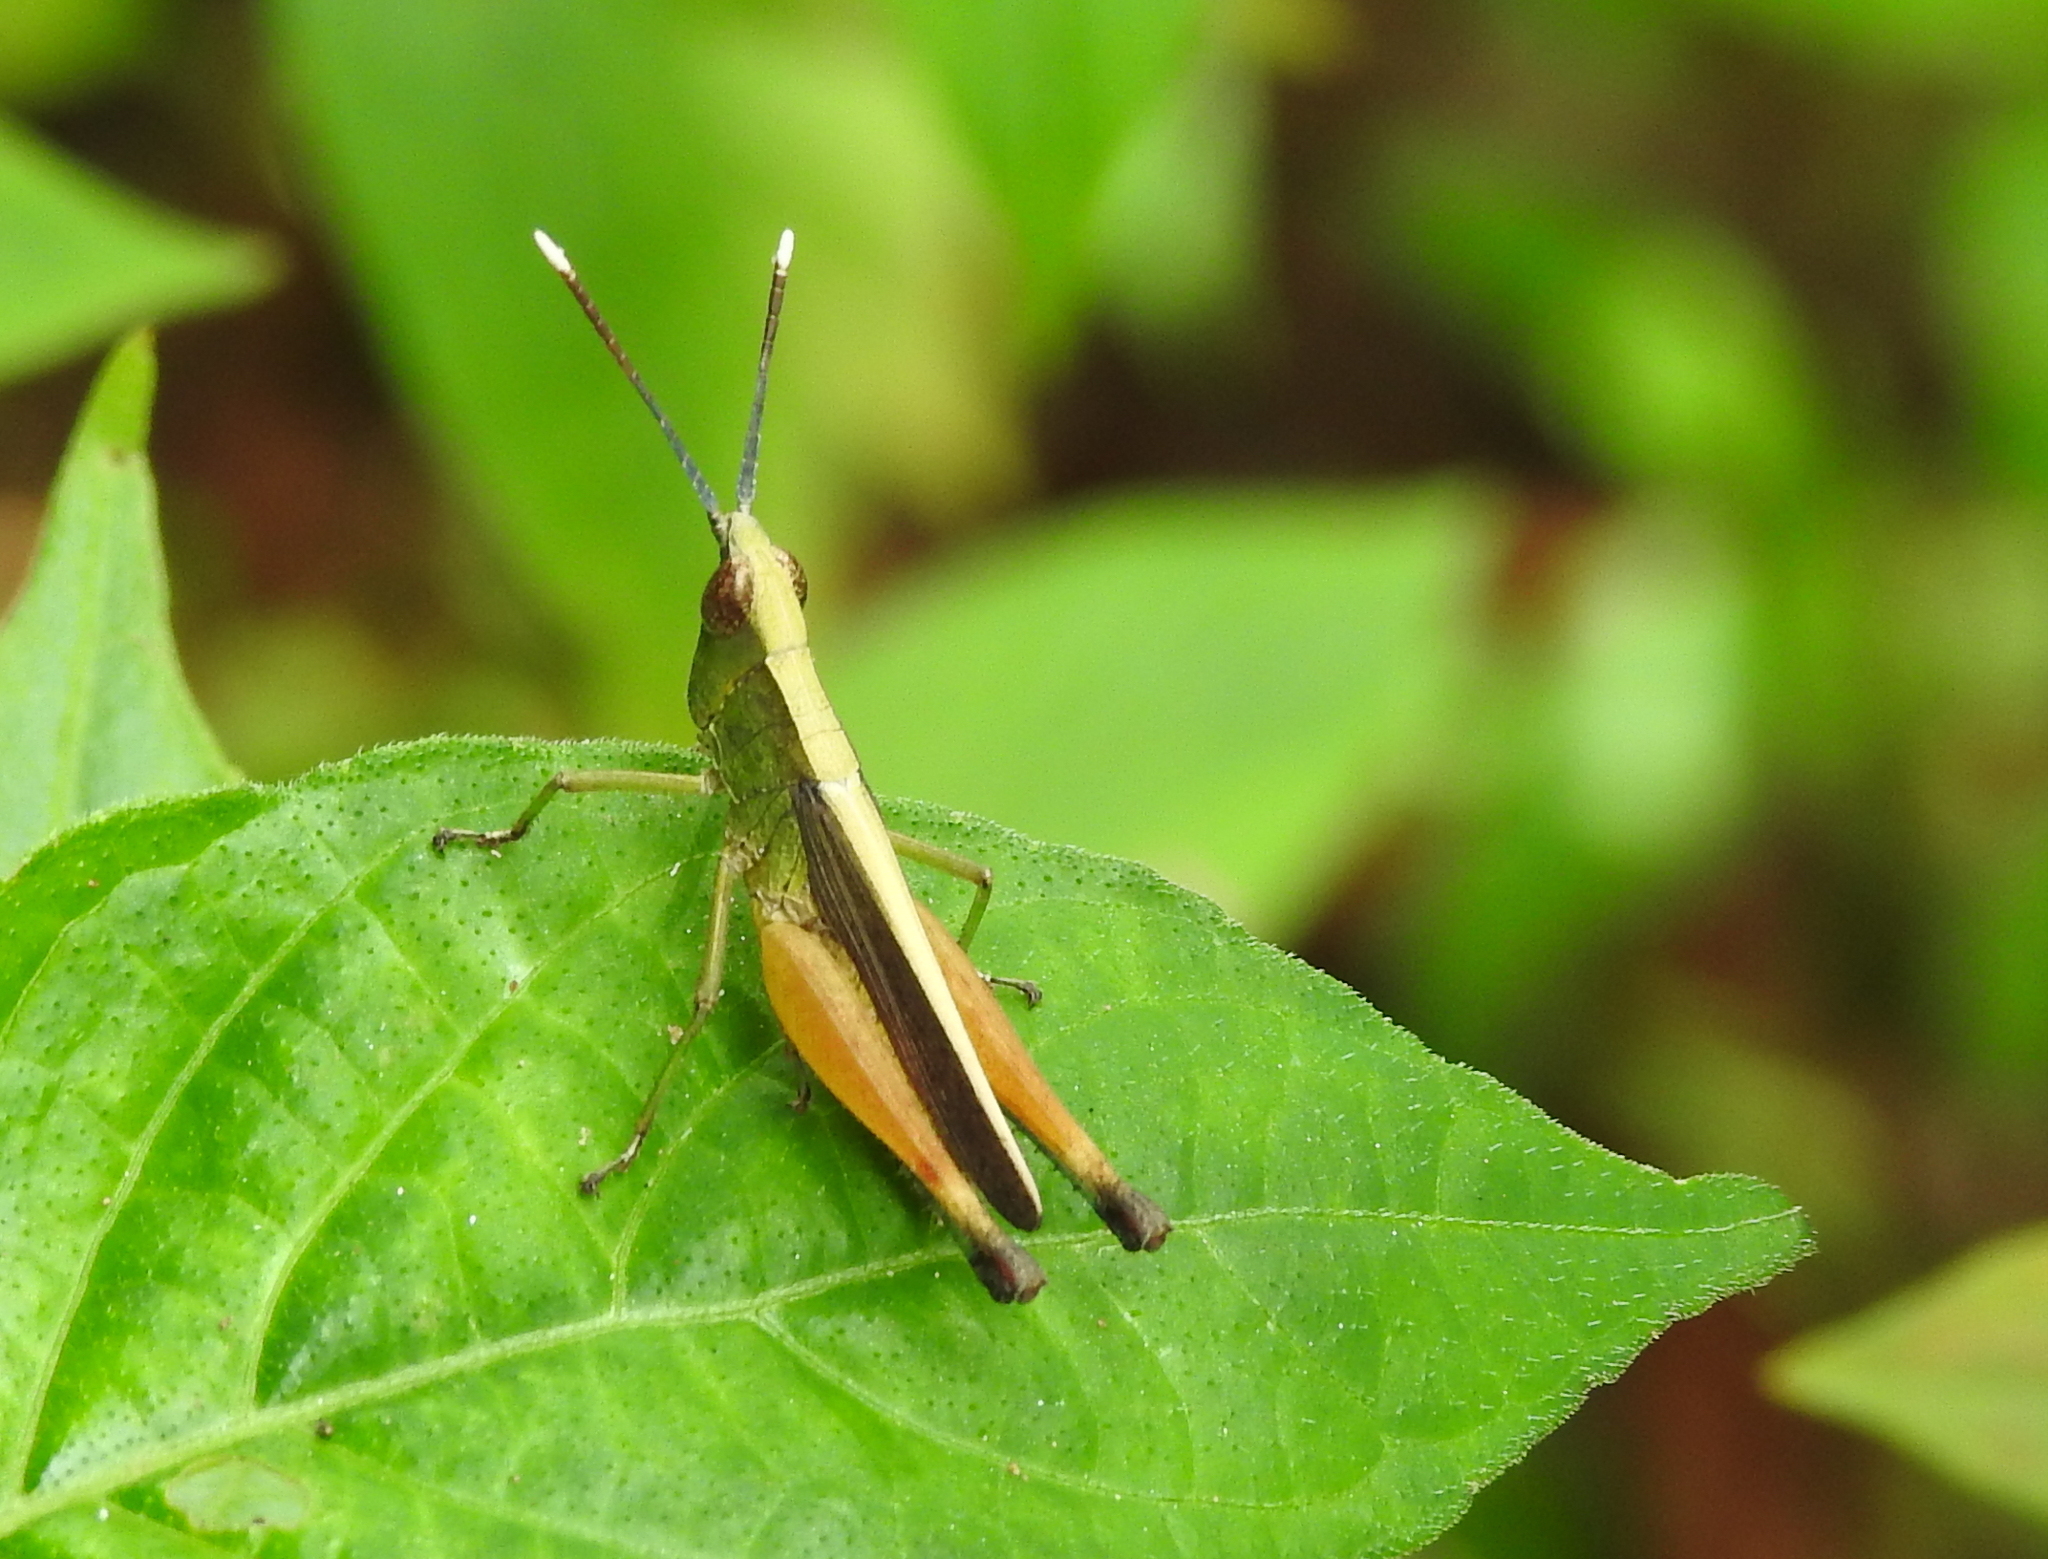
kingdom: Animalia
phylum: Arthropoda
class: Insecta
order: Orthoptera
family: Acrididae
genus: Phlaeoba
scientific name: Phlaeoba antennata
